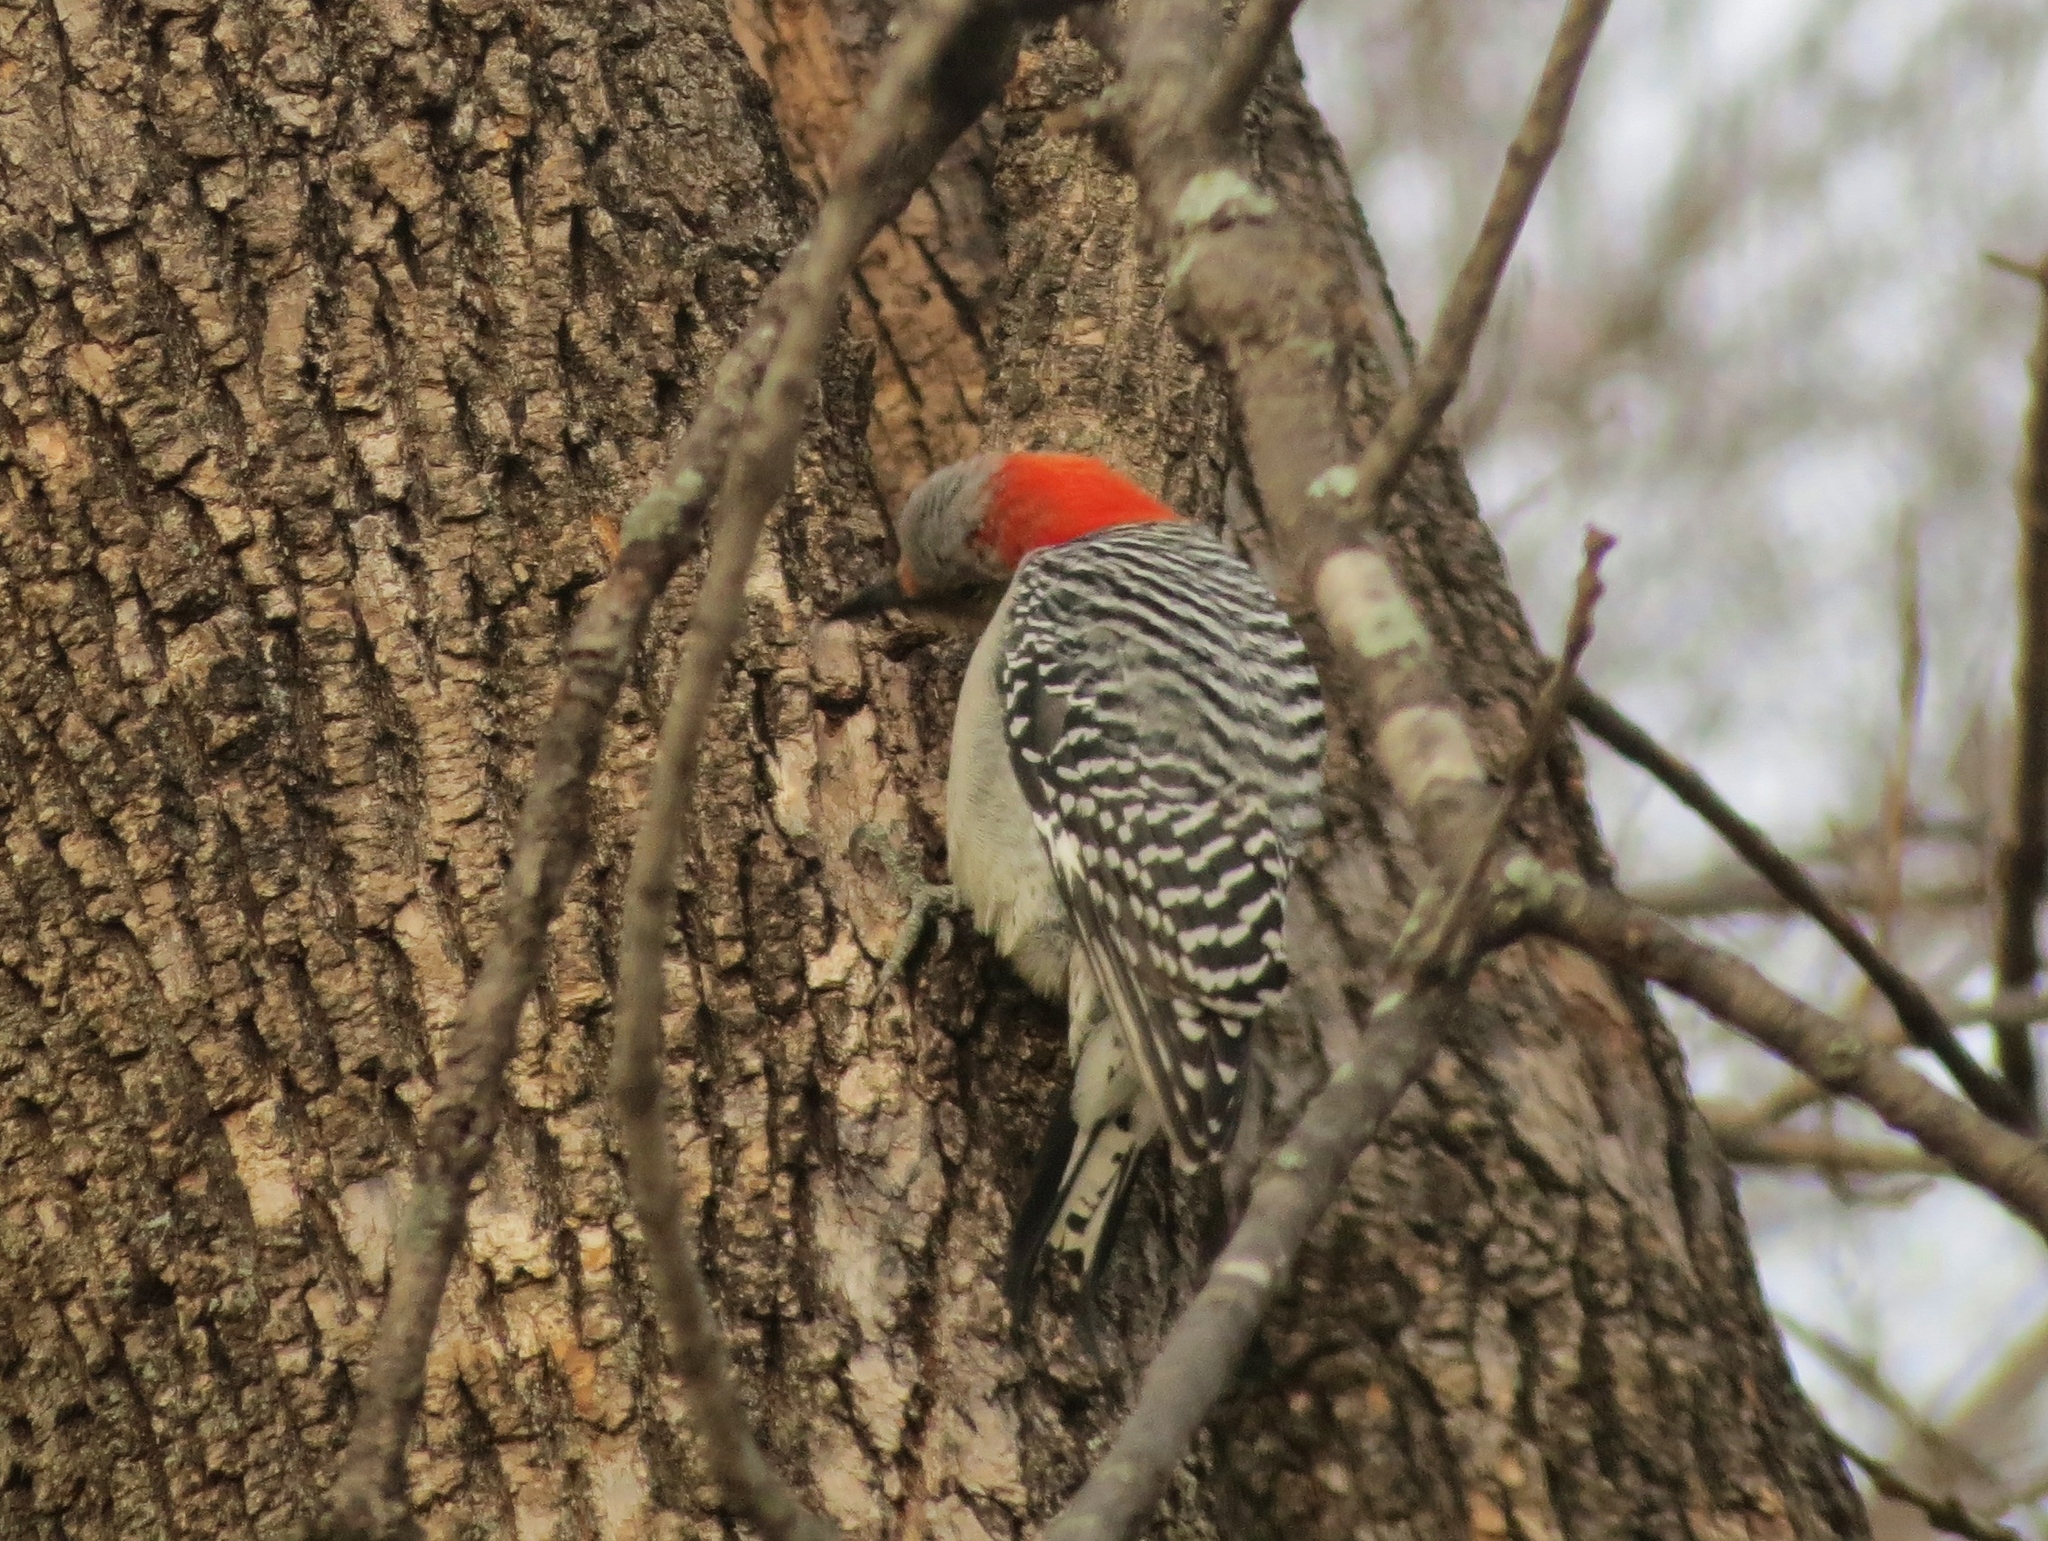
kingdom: Animalia
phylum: Chordata
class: Aves
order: Piciformes
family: Picidae
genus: Melanerpes
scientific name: Melanerpes carolinus
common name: Red-bellied woodpecker
